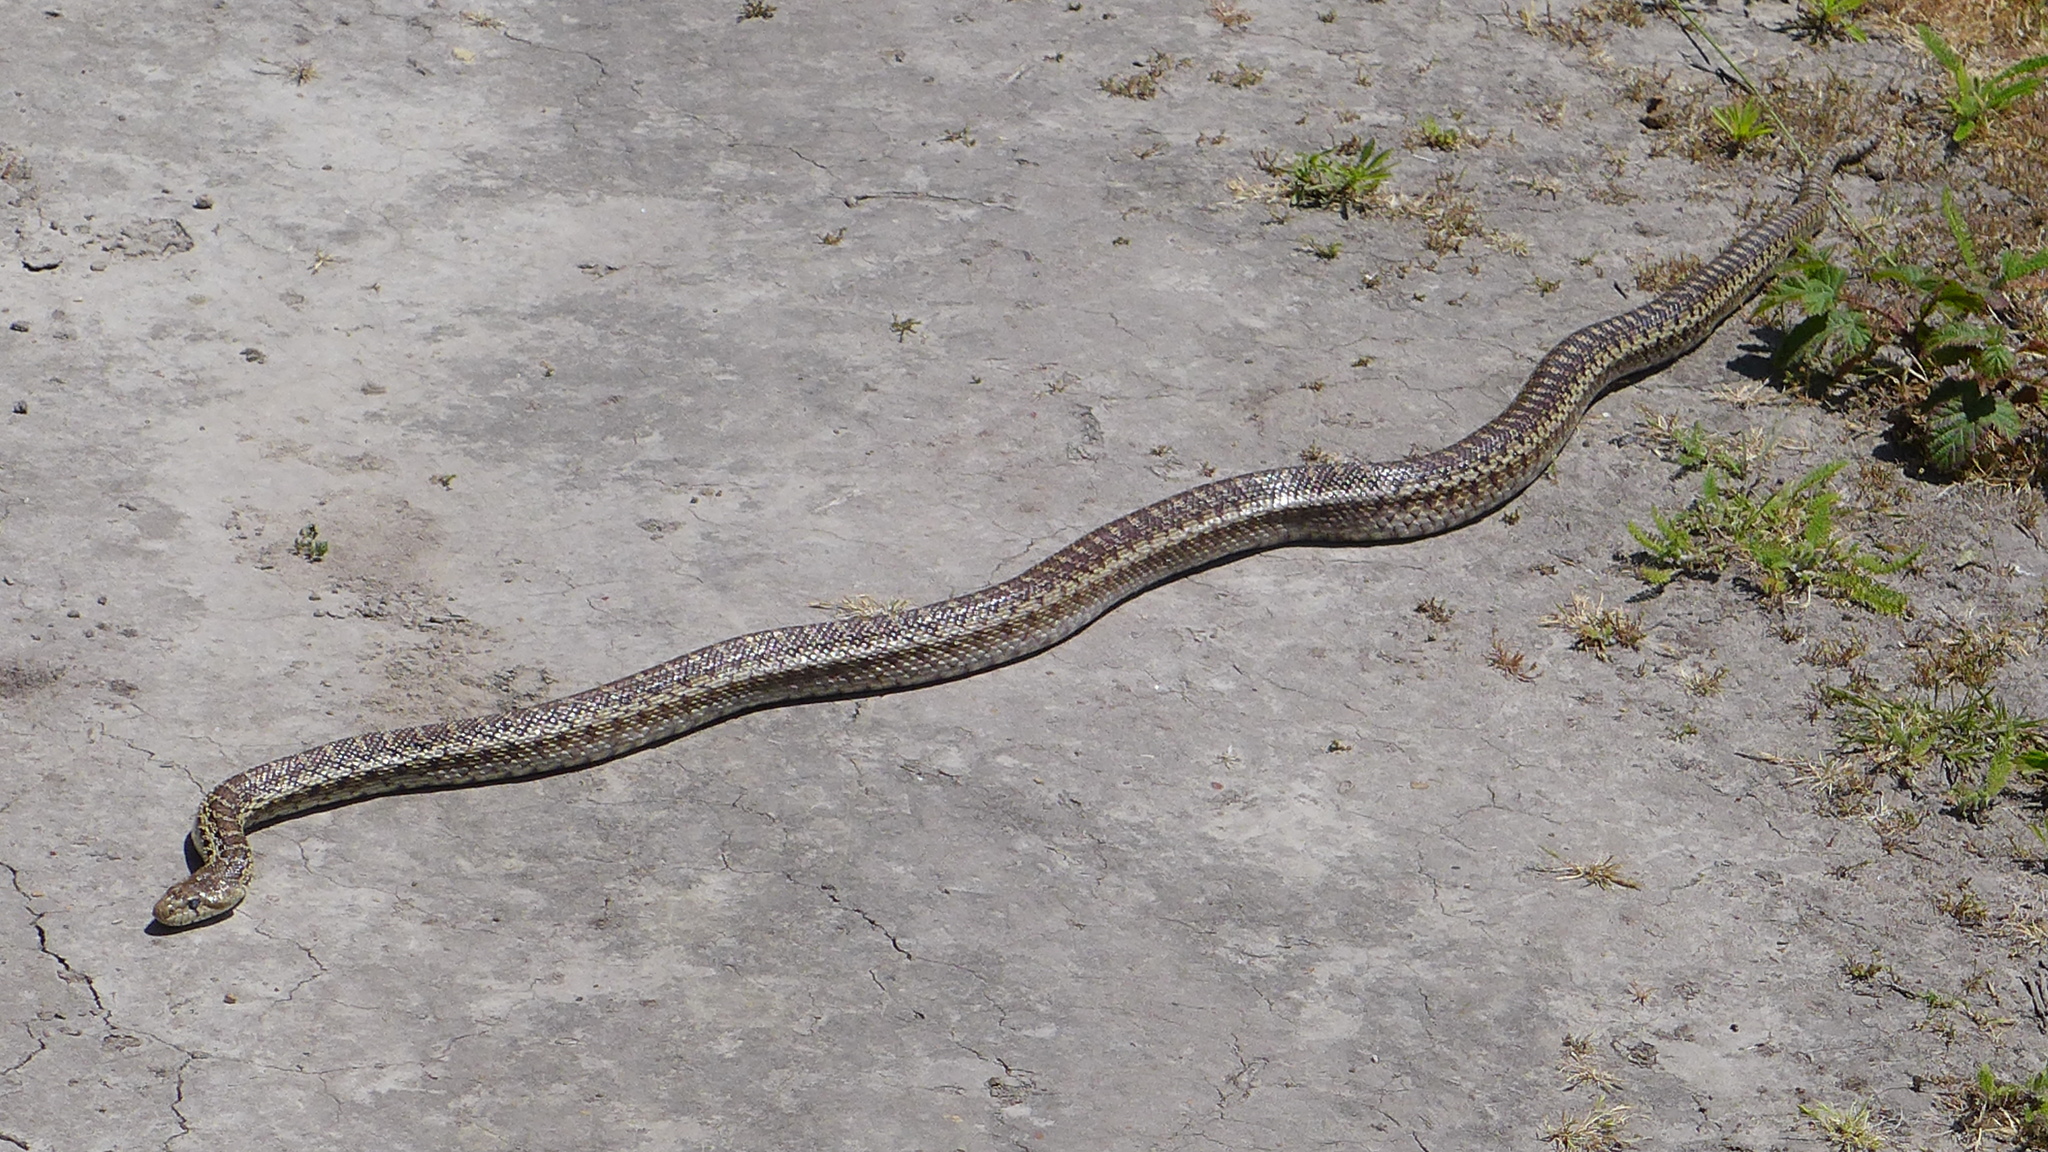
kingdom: Animalia
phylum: Chordata
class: Squamata
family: Colubridae
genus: Pituophis
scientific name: Pituophis catenifer
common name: Gopher snake
